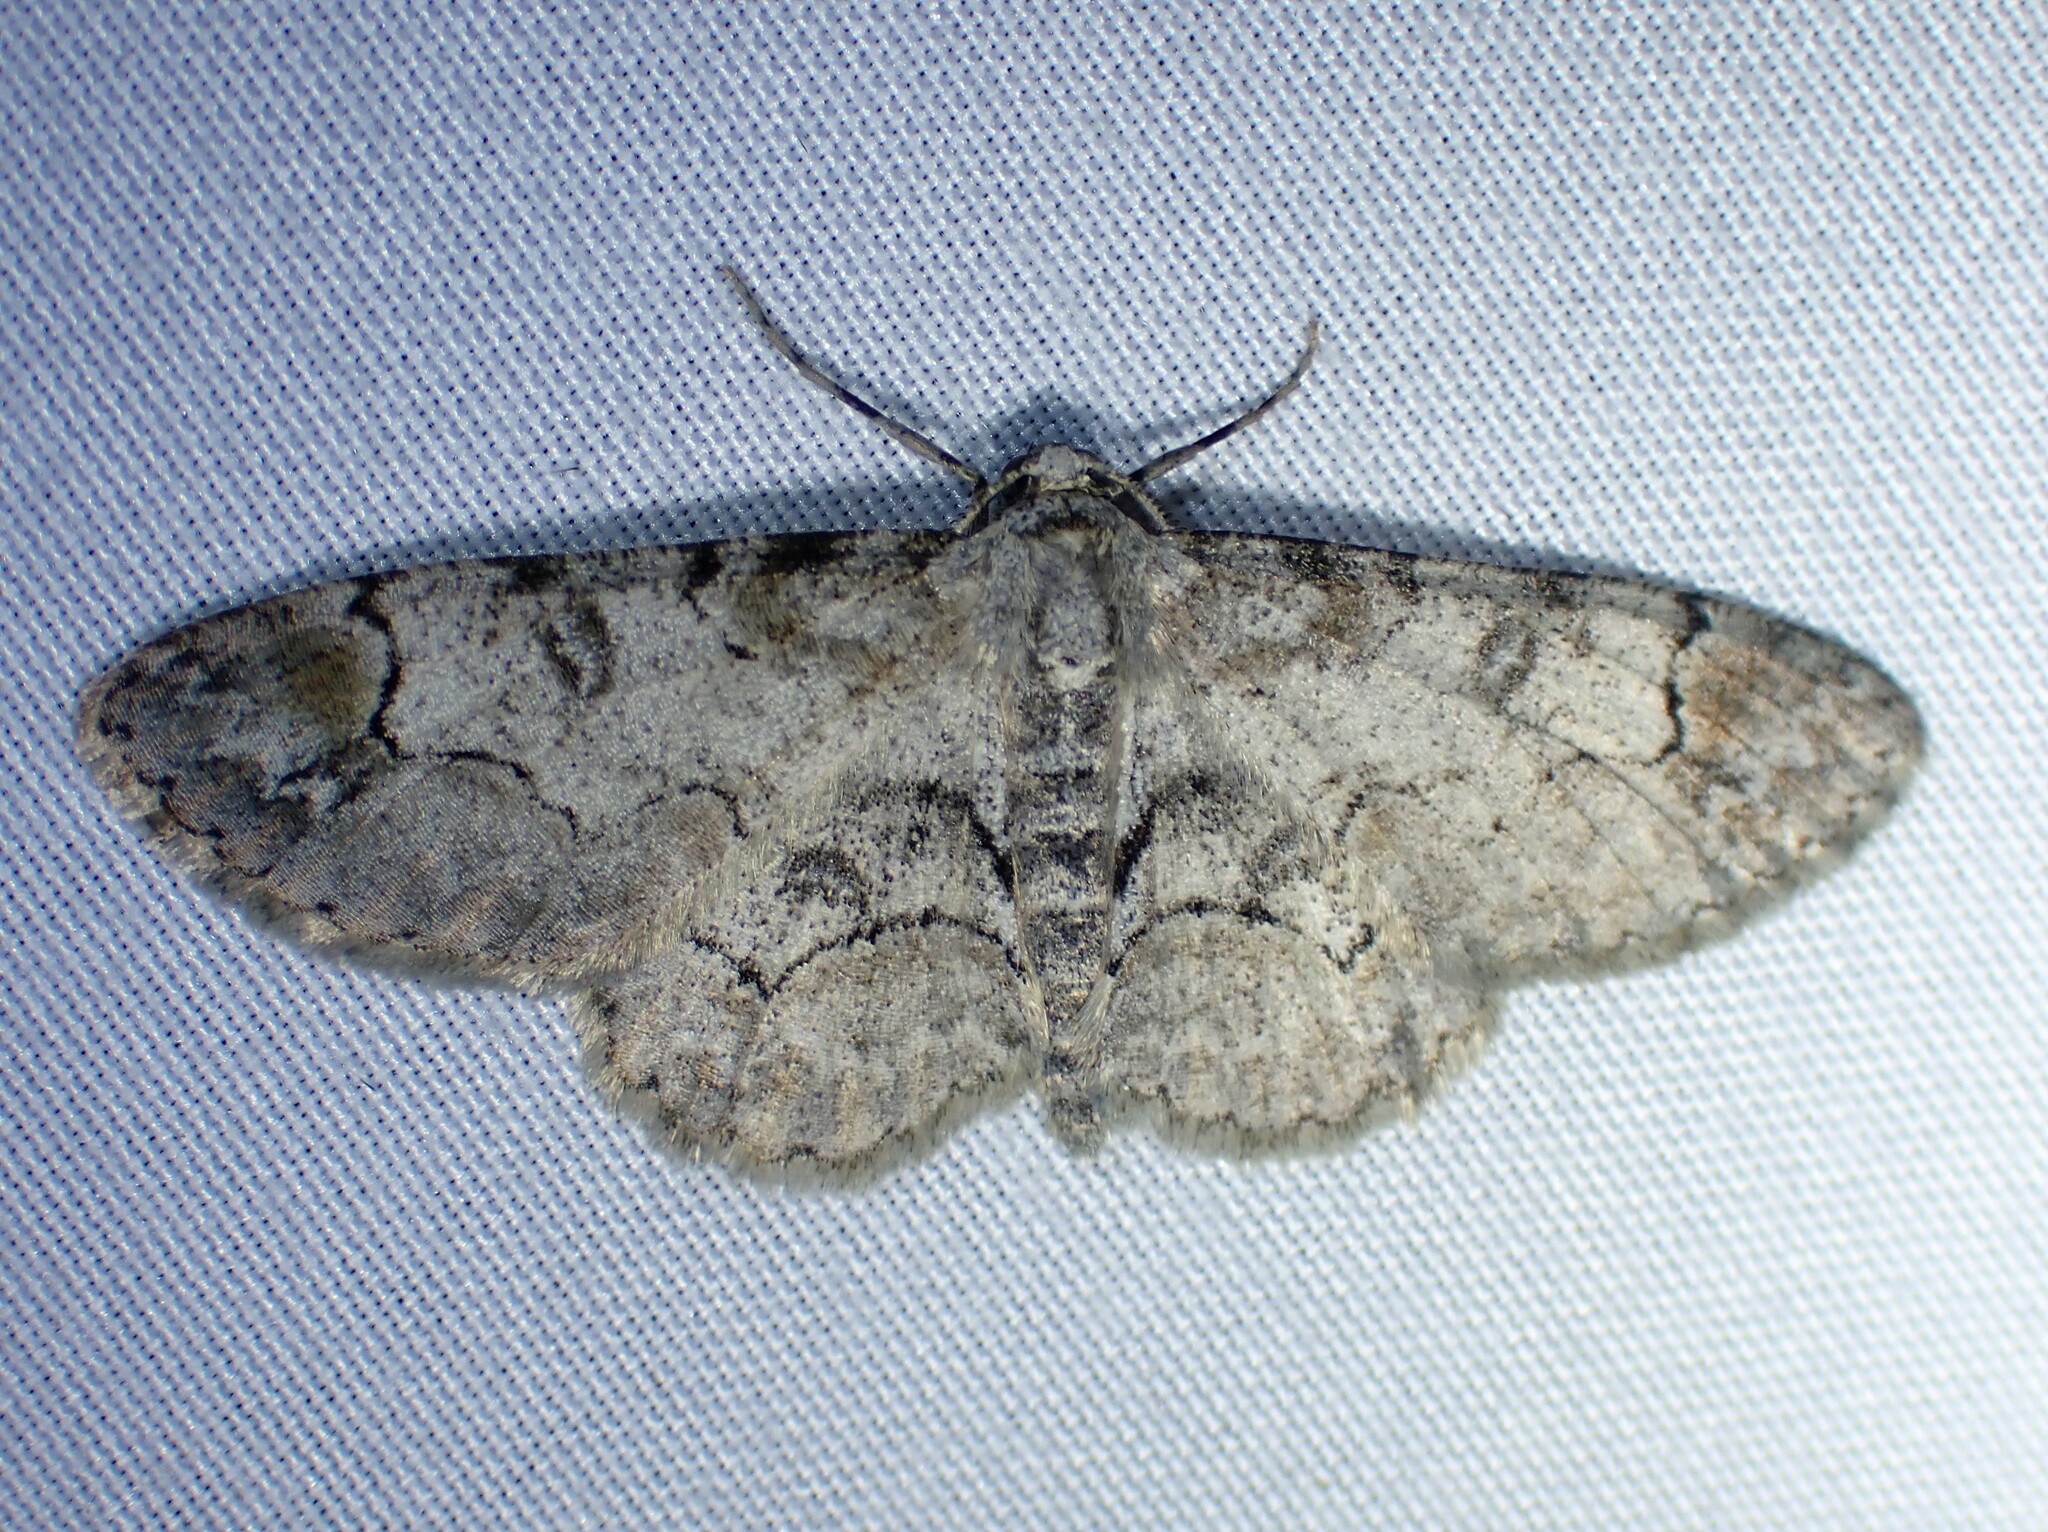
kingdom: Animalia
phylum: Arthropoda
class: Insecta
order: Lepidoptera
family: Geometridae
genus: Iridopsis
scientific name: Iridopsis larvaria
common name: Bent-line gray
